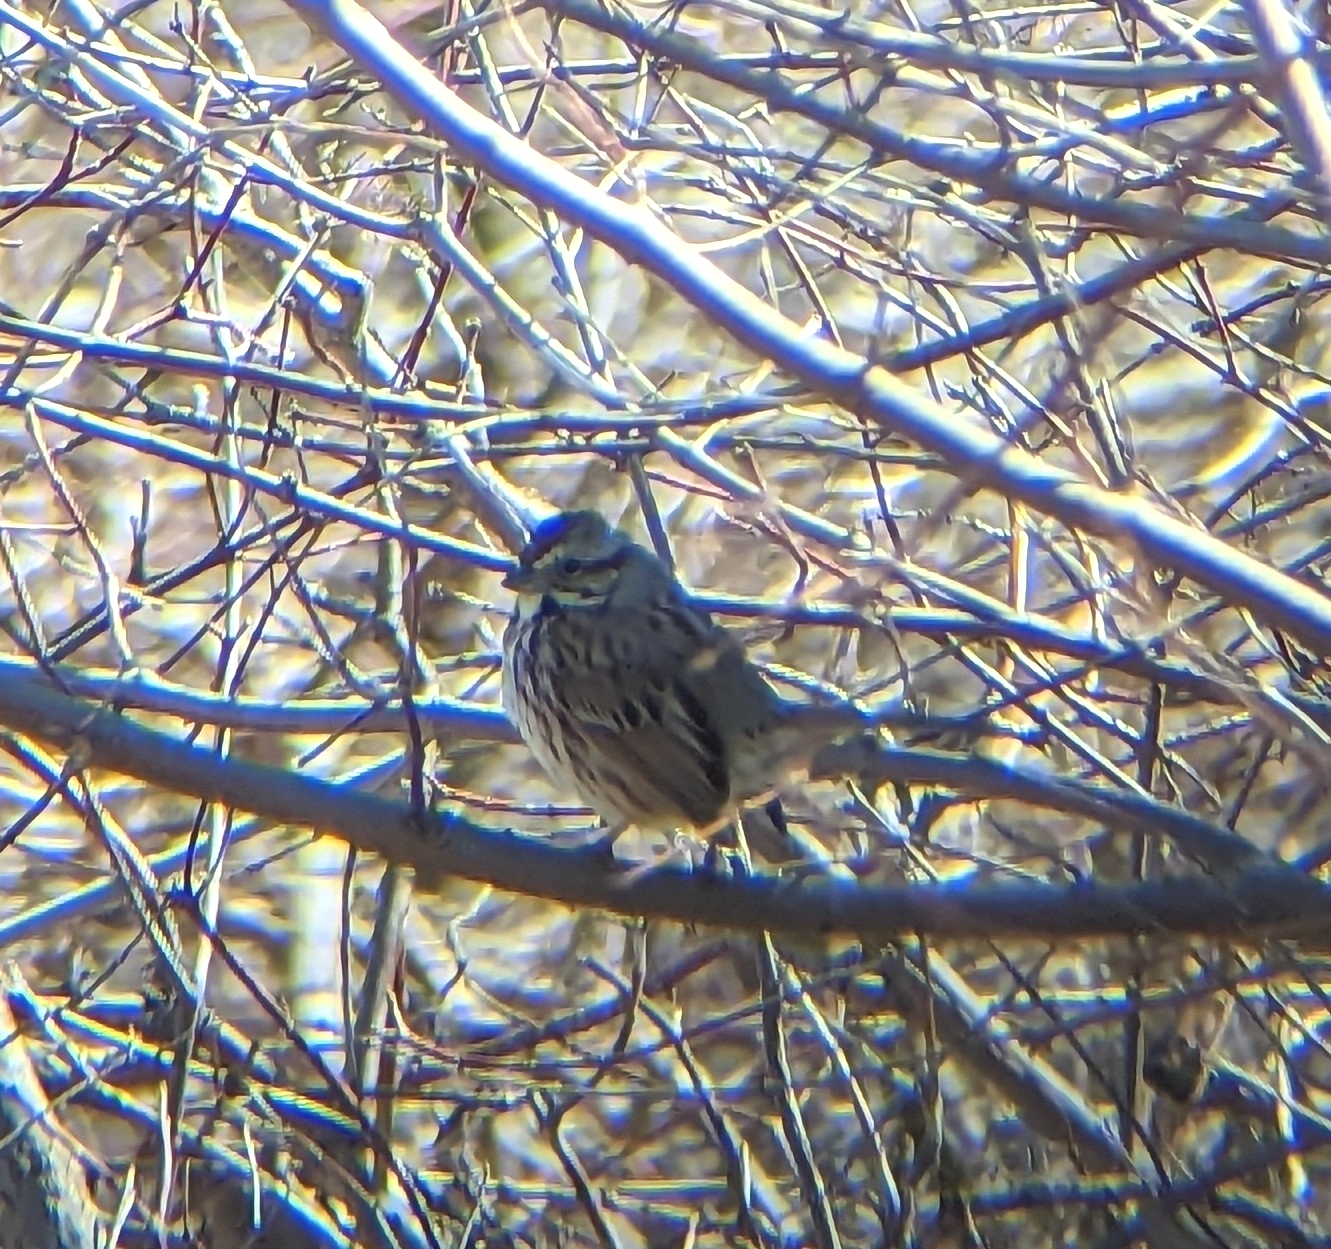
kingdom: Animalia
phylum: Chordata
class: Aves
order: Passeriformes
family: Passerellidae
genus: Melospiza
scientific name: Melospiza melodia
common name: Song sparrow
